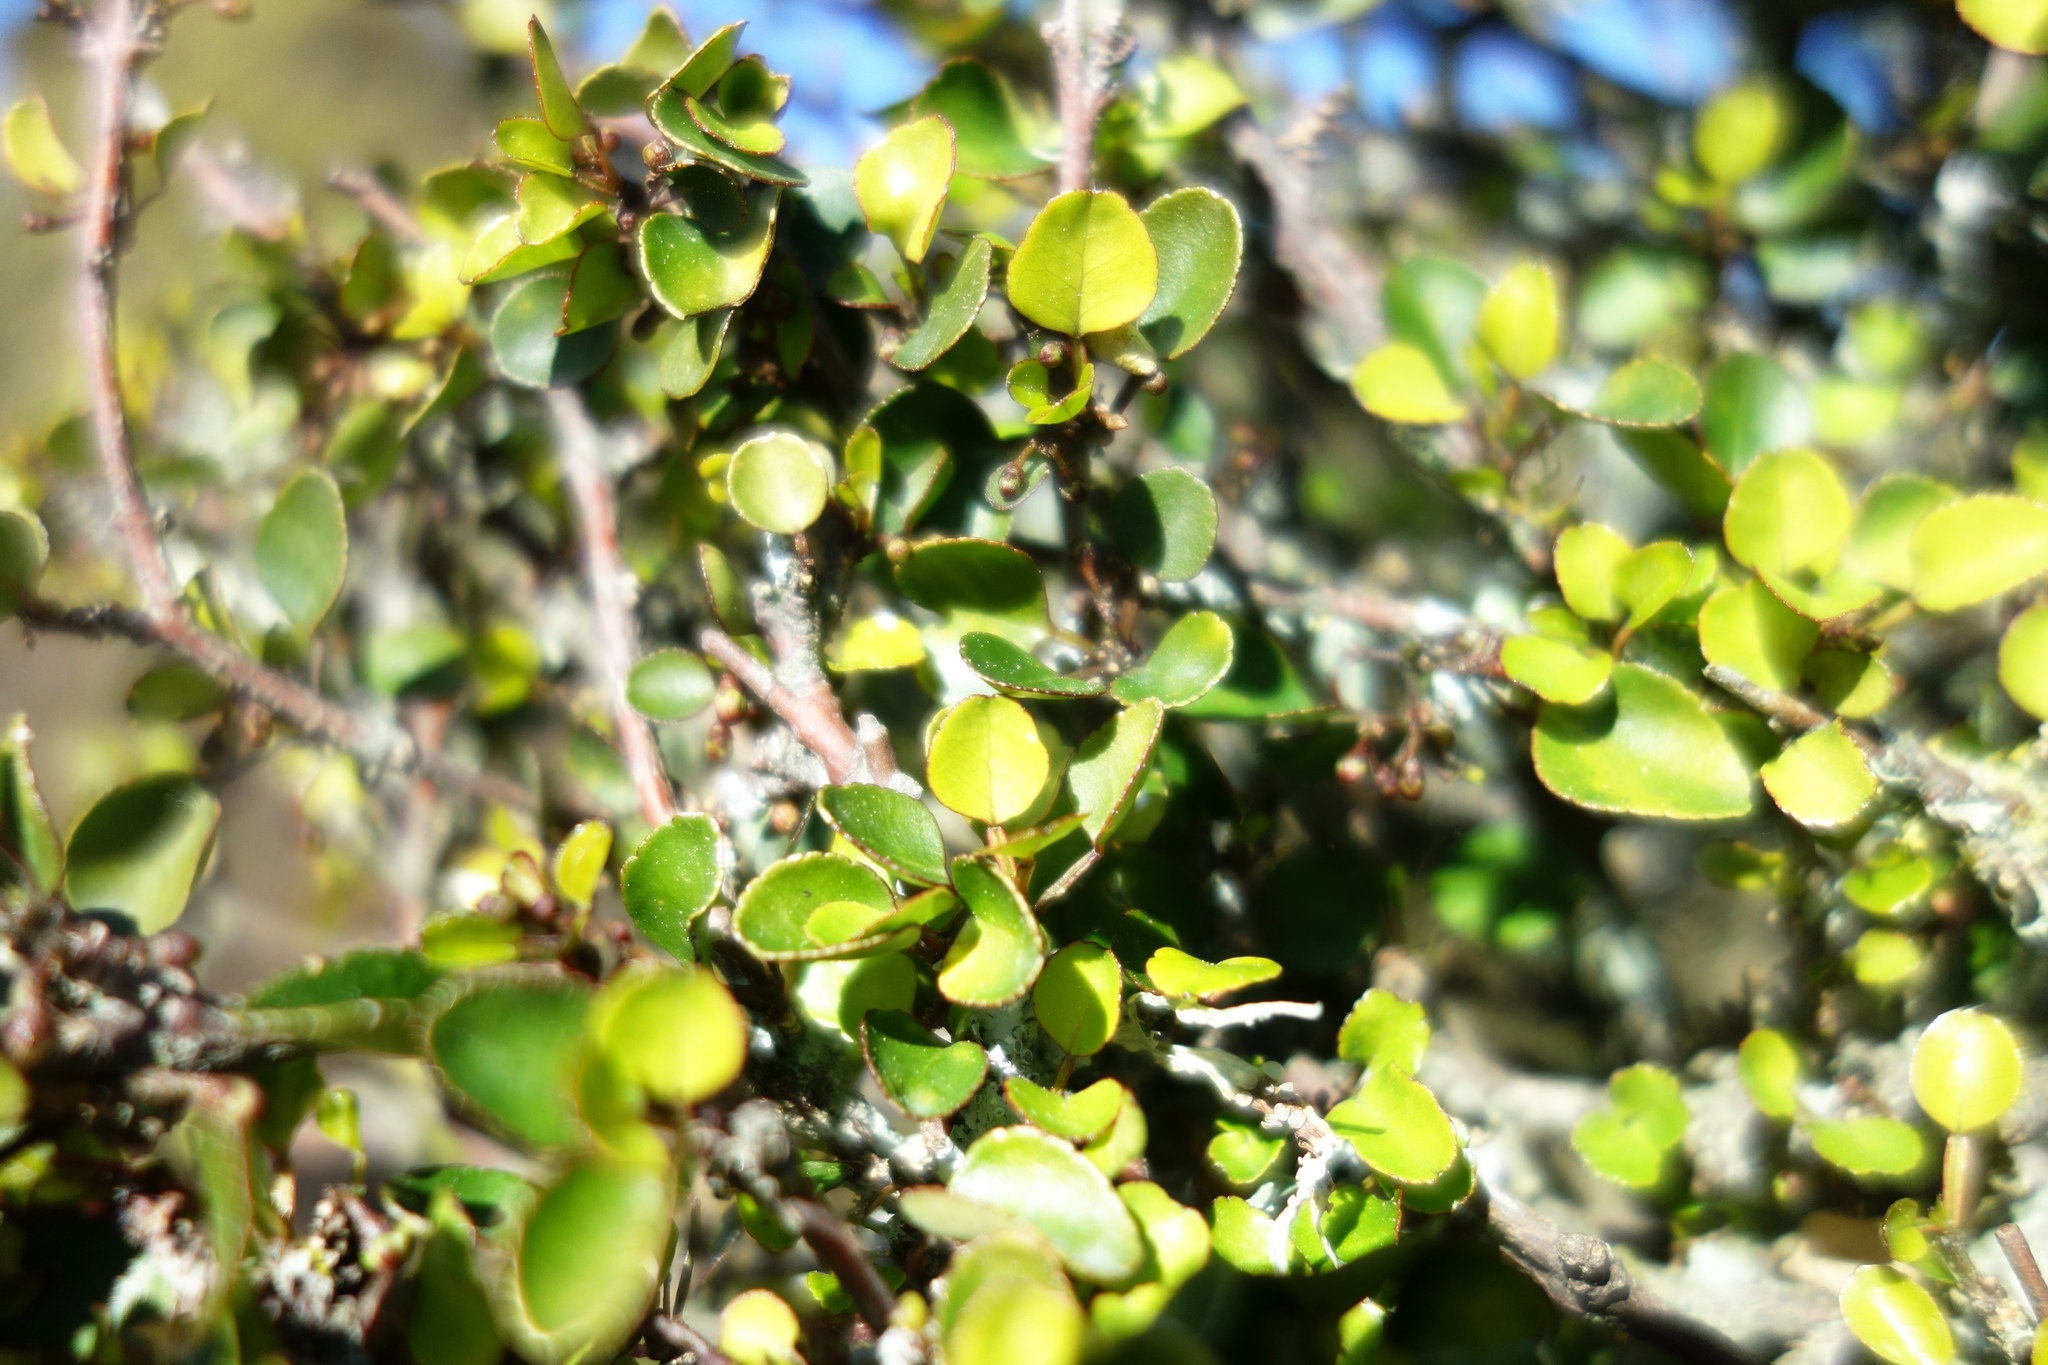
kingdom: Plantae
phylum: Tracheophyta
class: Magnoliopsida
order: Sapindales
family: Rutaceae
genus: Melicope
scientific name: Melicope simplex
